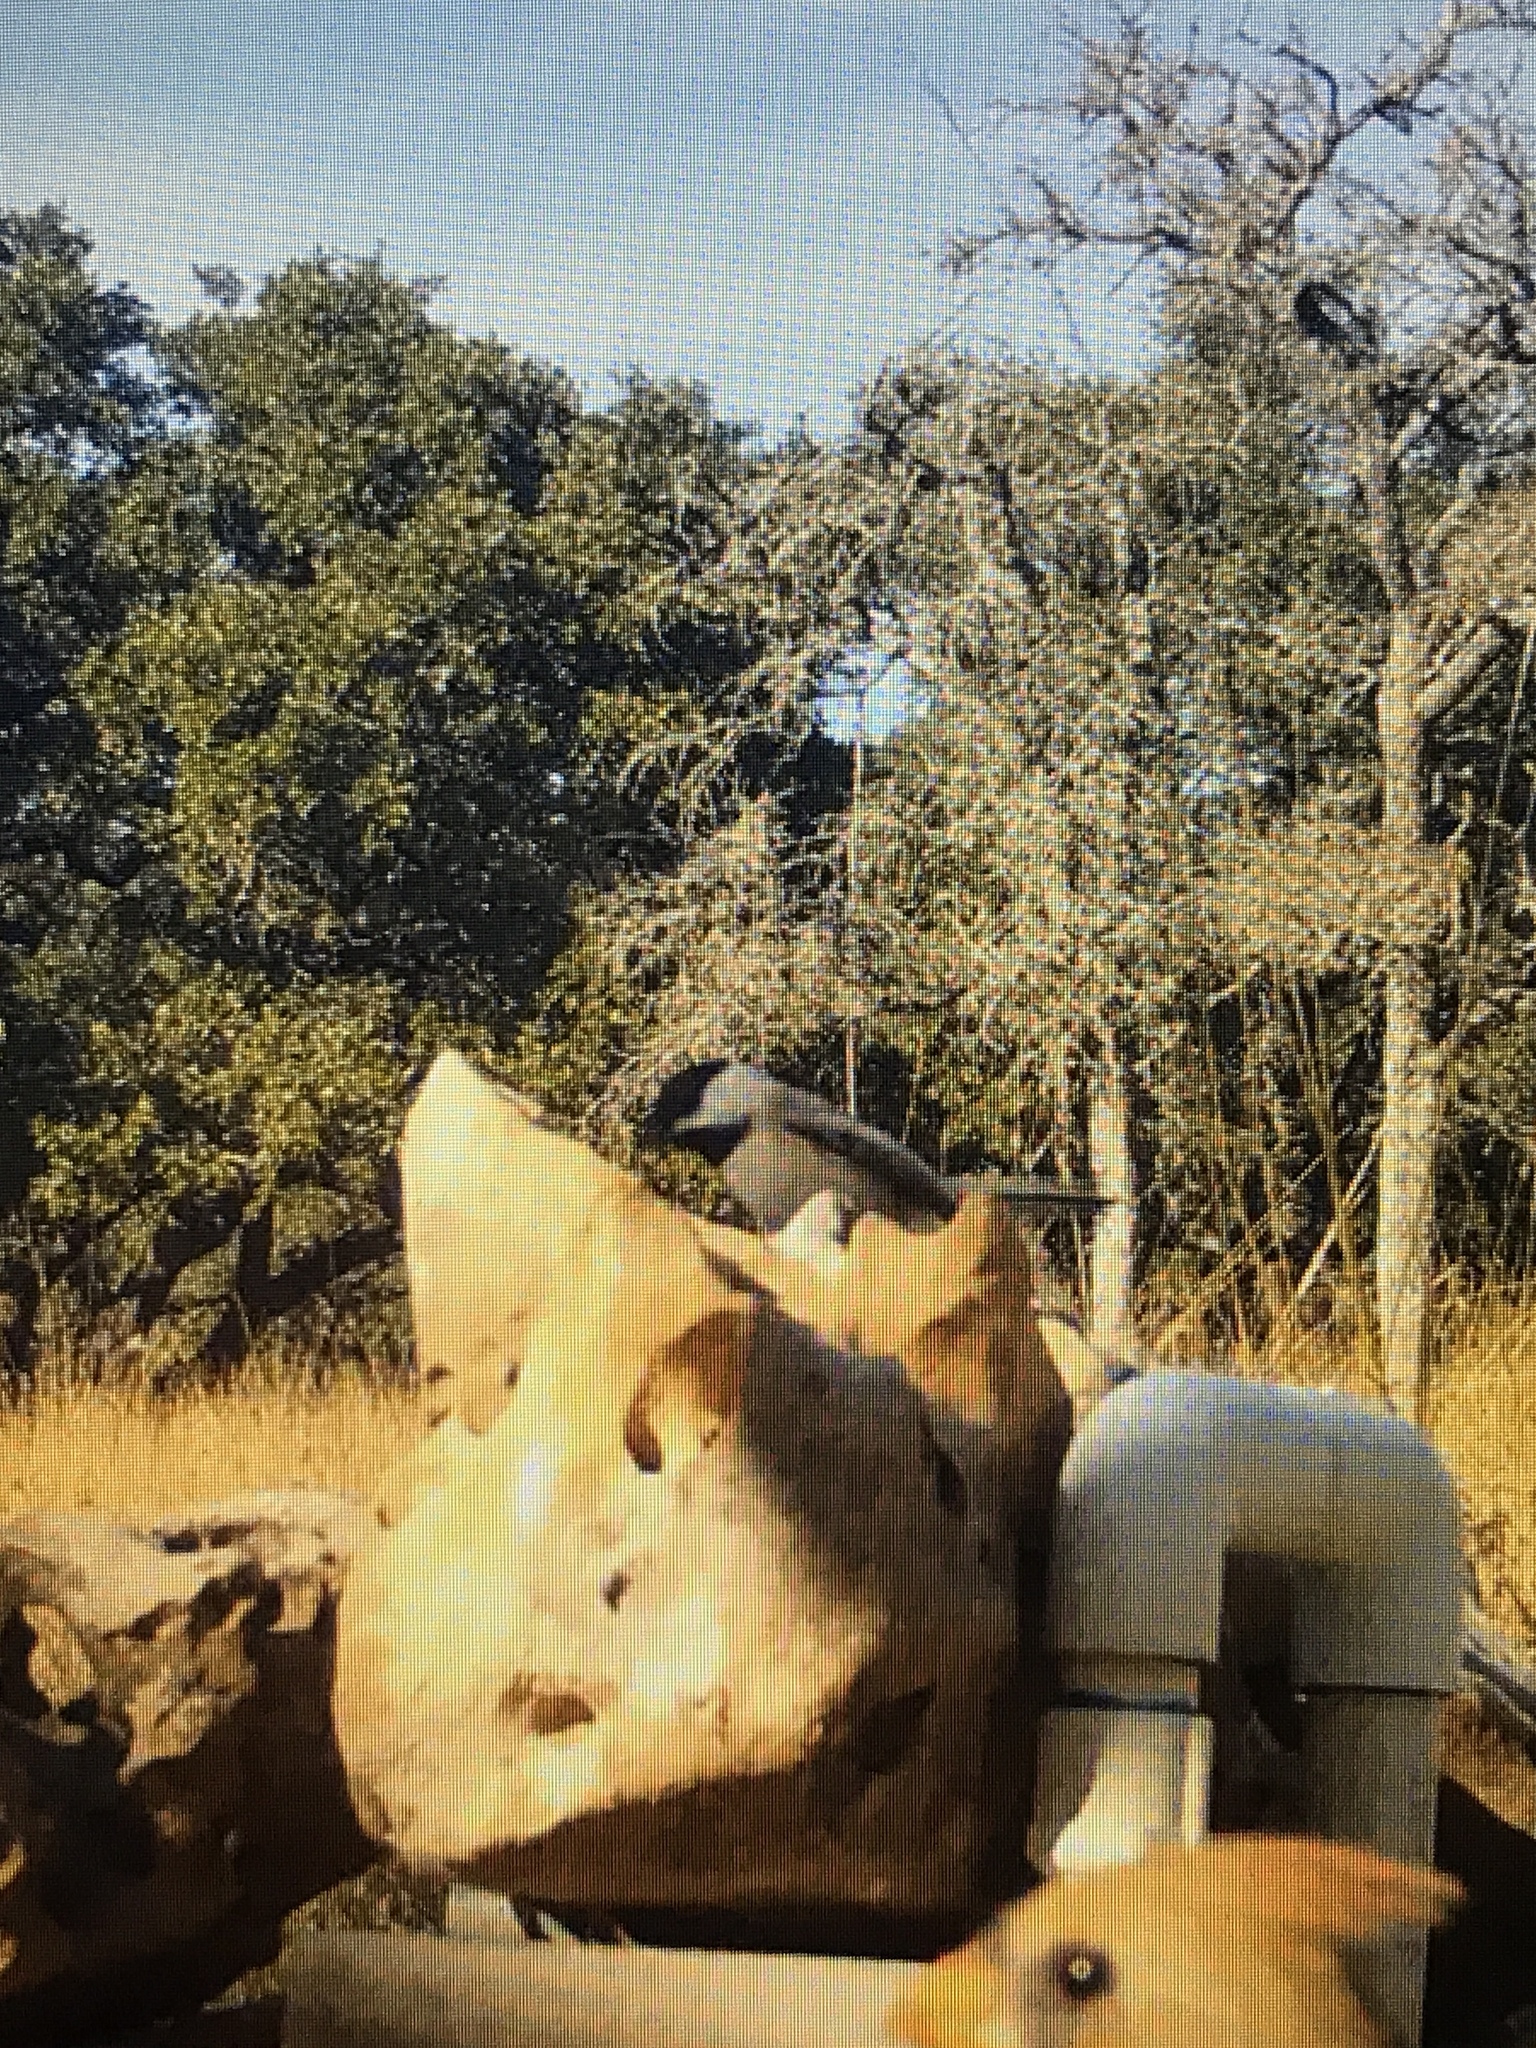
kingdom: Animalia
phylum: Chordata
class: Aves
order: Passeriformes
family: Paridae
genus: Poecile
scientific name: Poecile carolinensis
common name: Carolina chickadee
